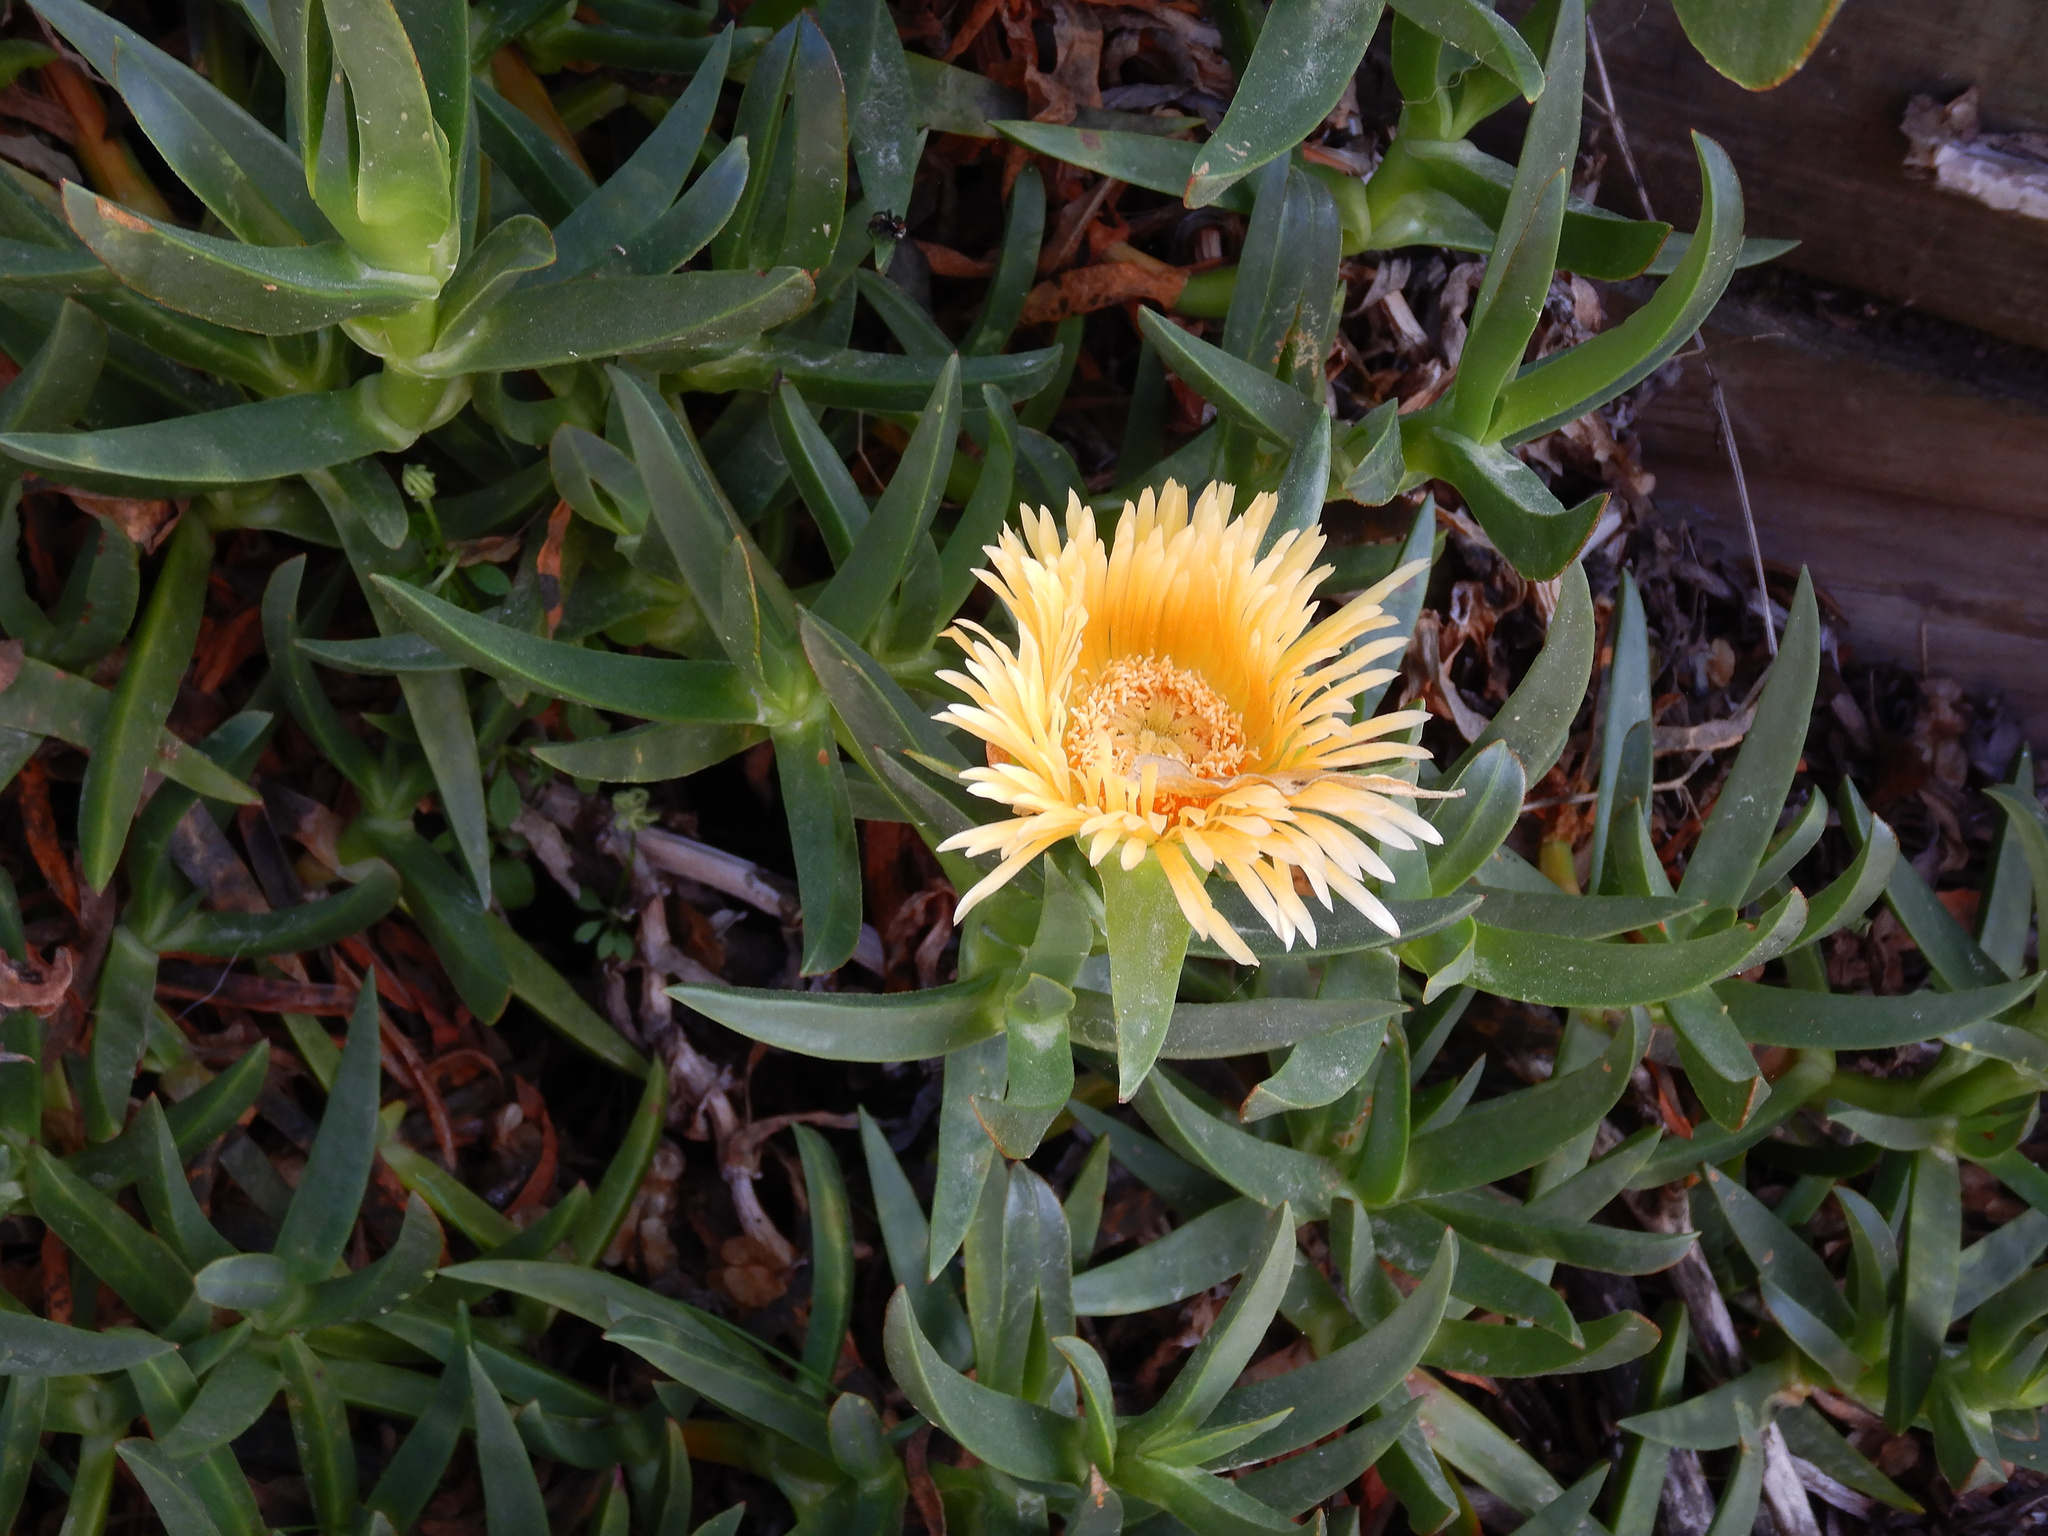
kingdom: Plantae
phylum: Tracheophyta
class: Magnoliopsida
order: Caryophyllales
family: Aizoaceae
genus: Carpobrotus
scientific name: Carpobrotus edulis
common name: Hottentot-fig
